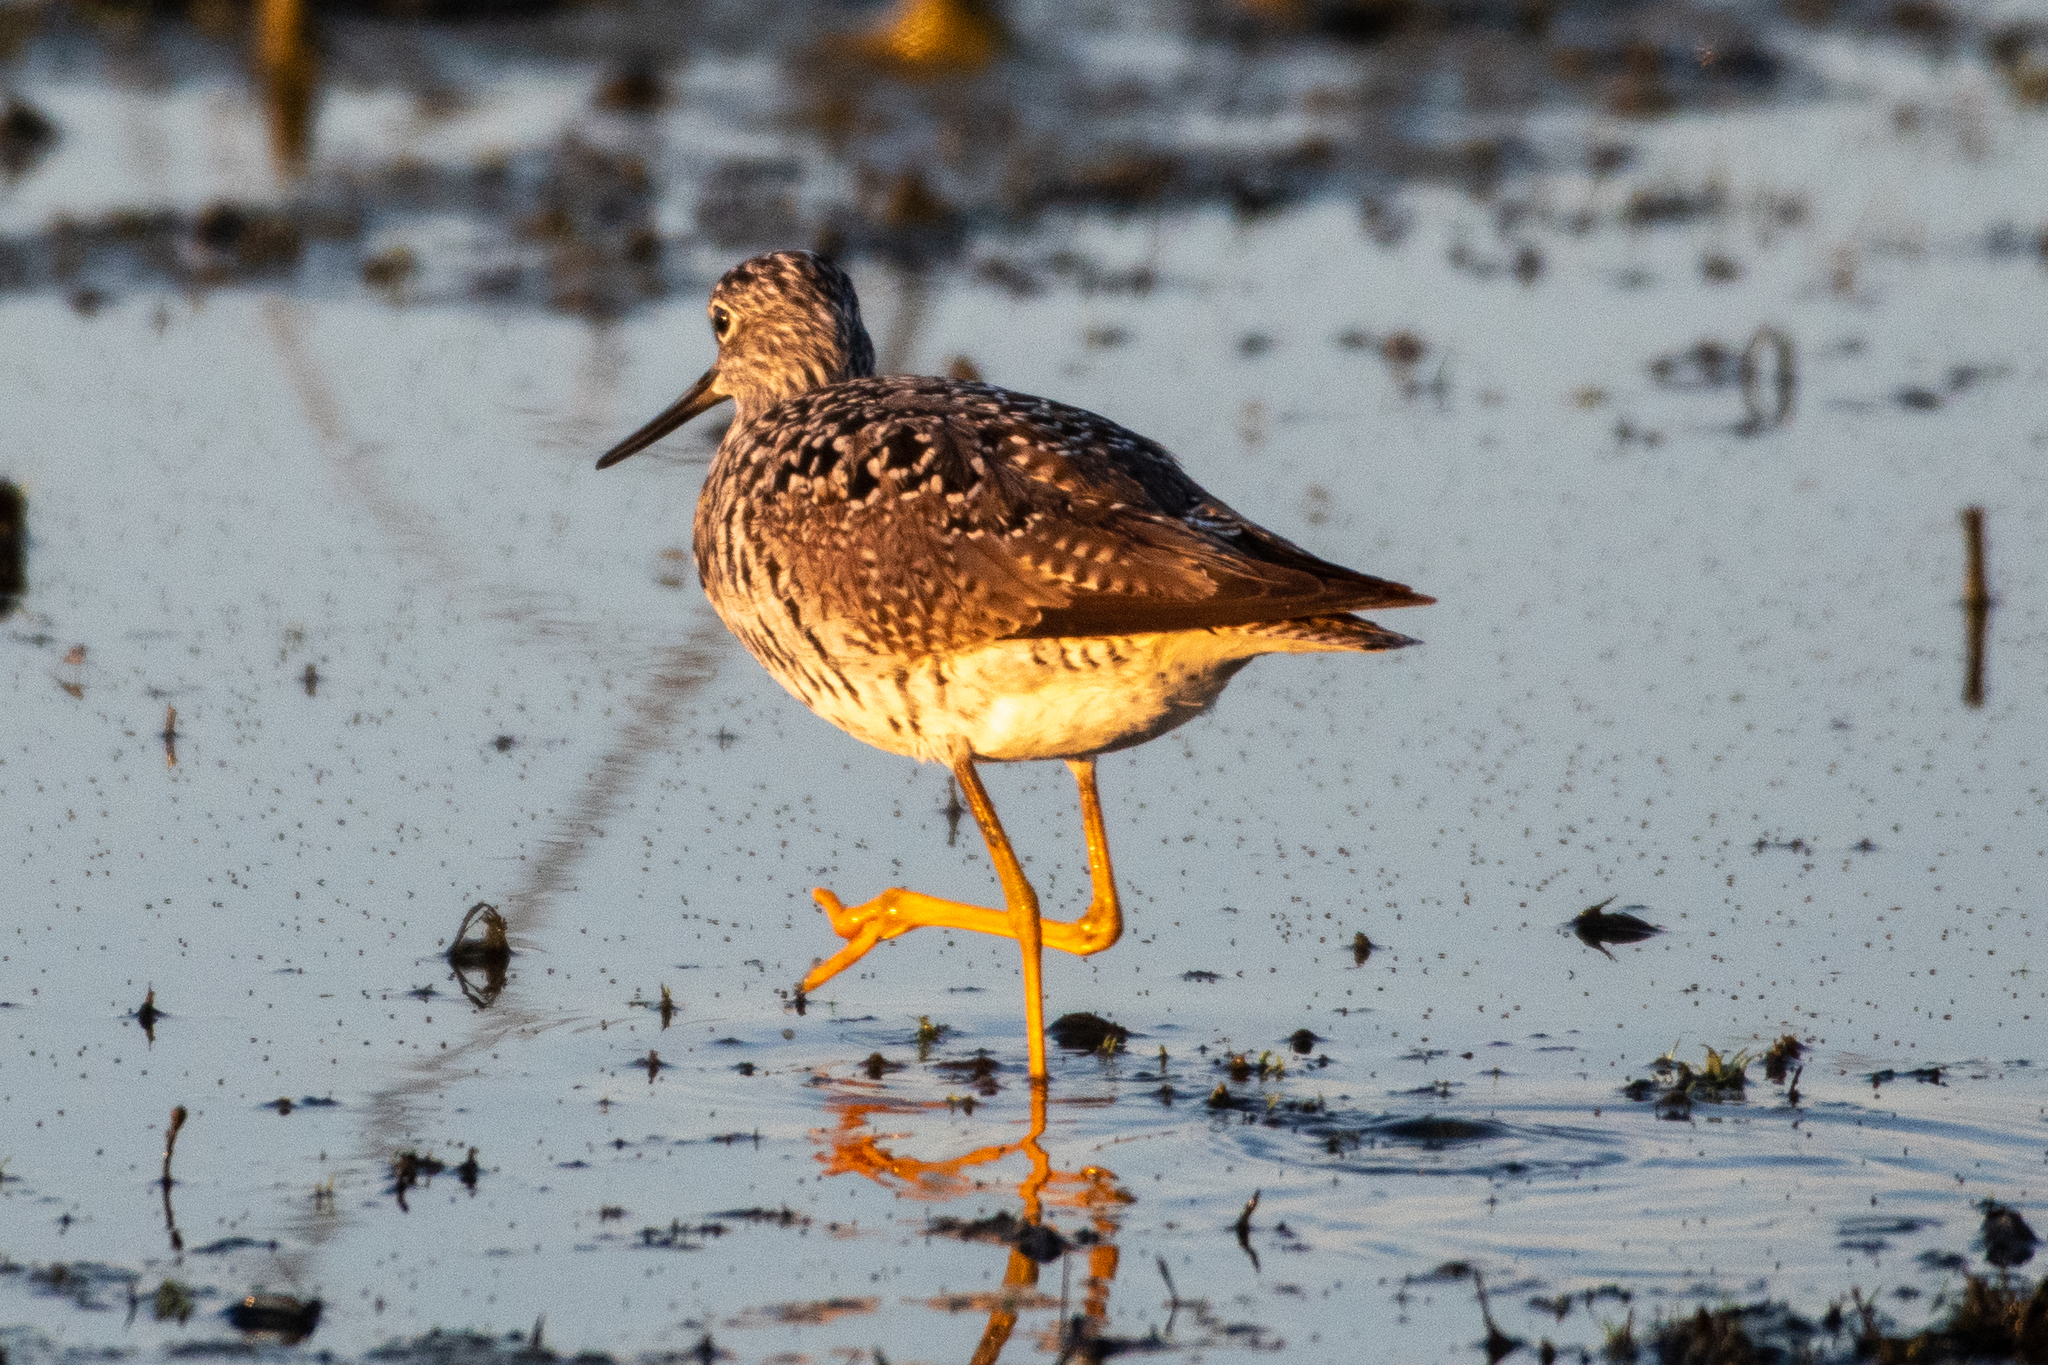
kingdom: Animalia
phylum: Chordata
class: Aves
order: Charadriiformes
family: Scolopacidae
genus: Tringa
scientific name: Tringa melanoleuca
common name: Greater yellowlegs
